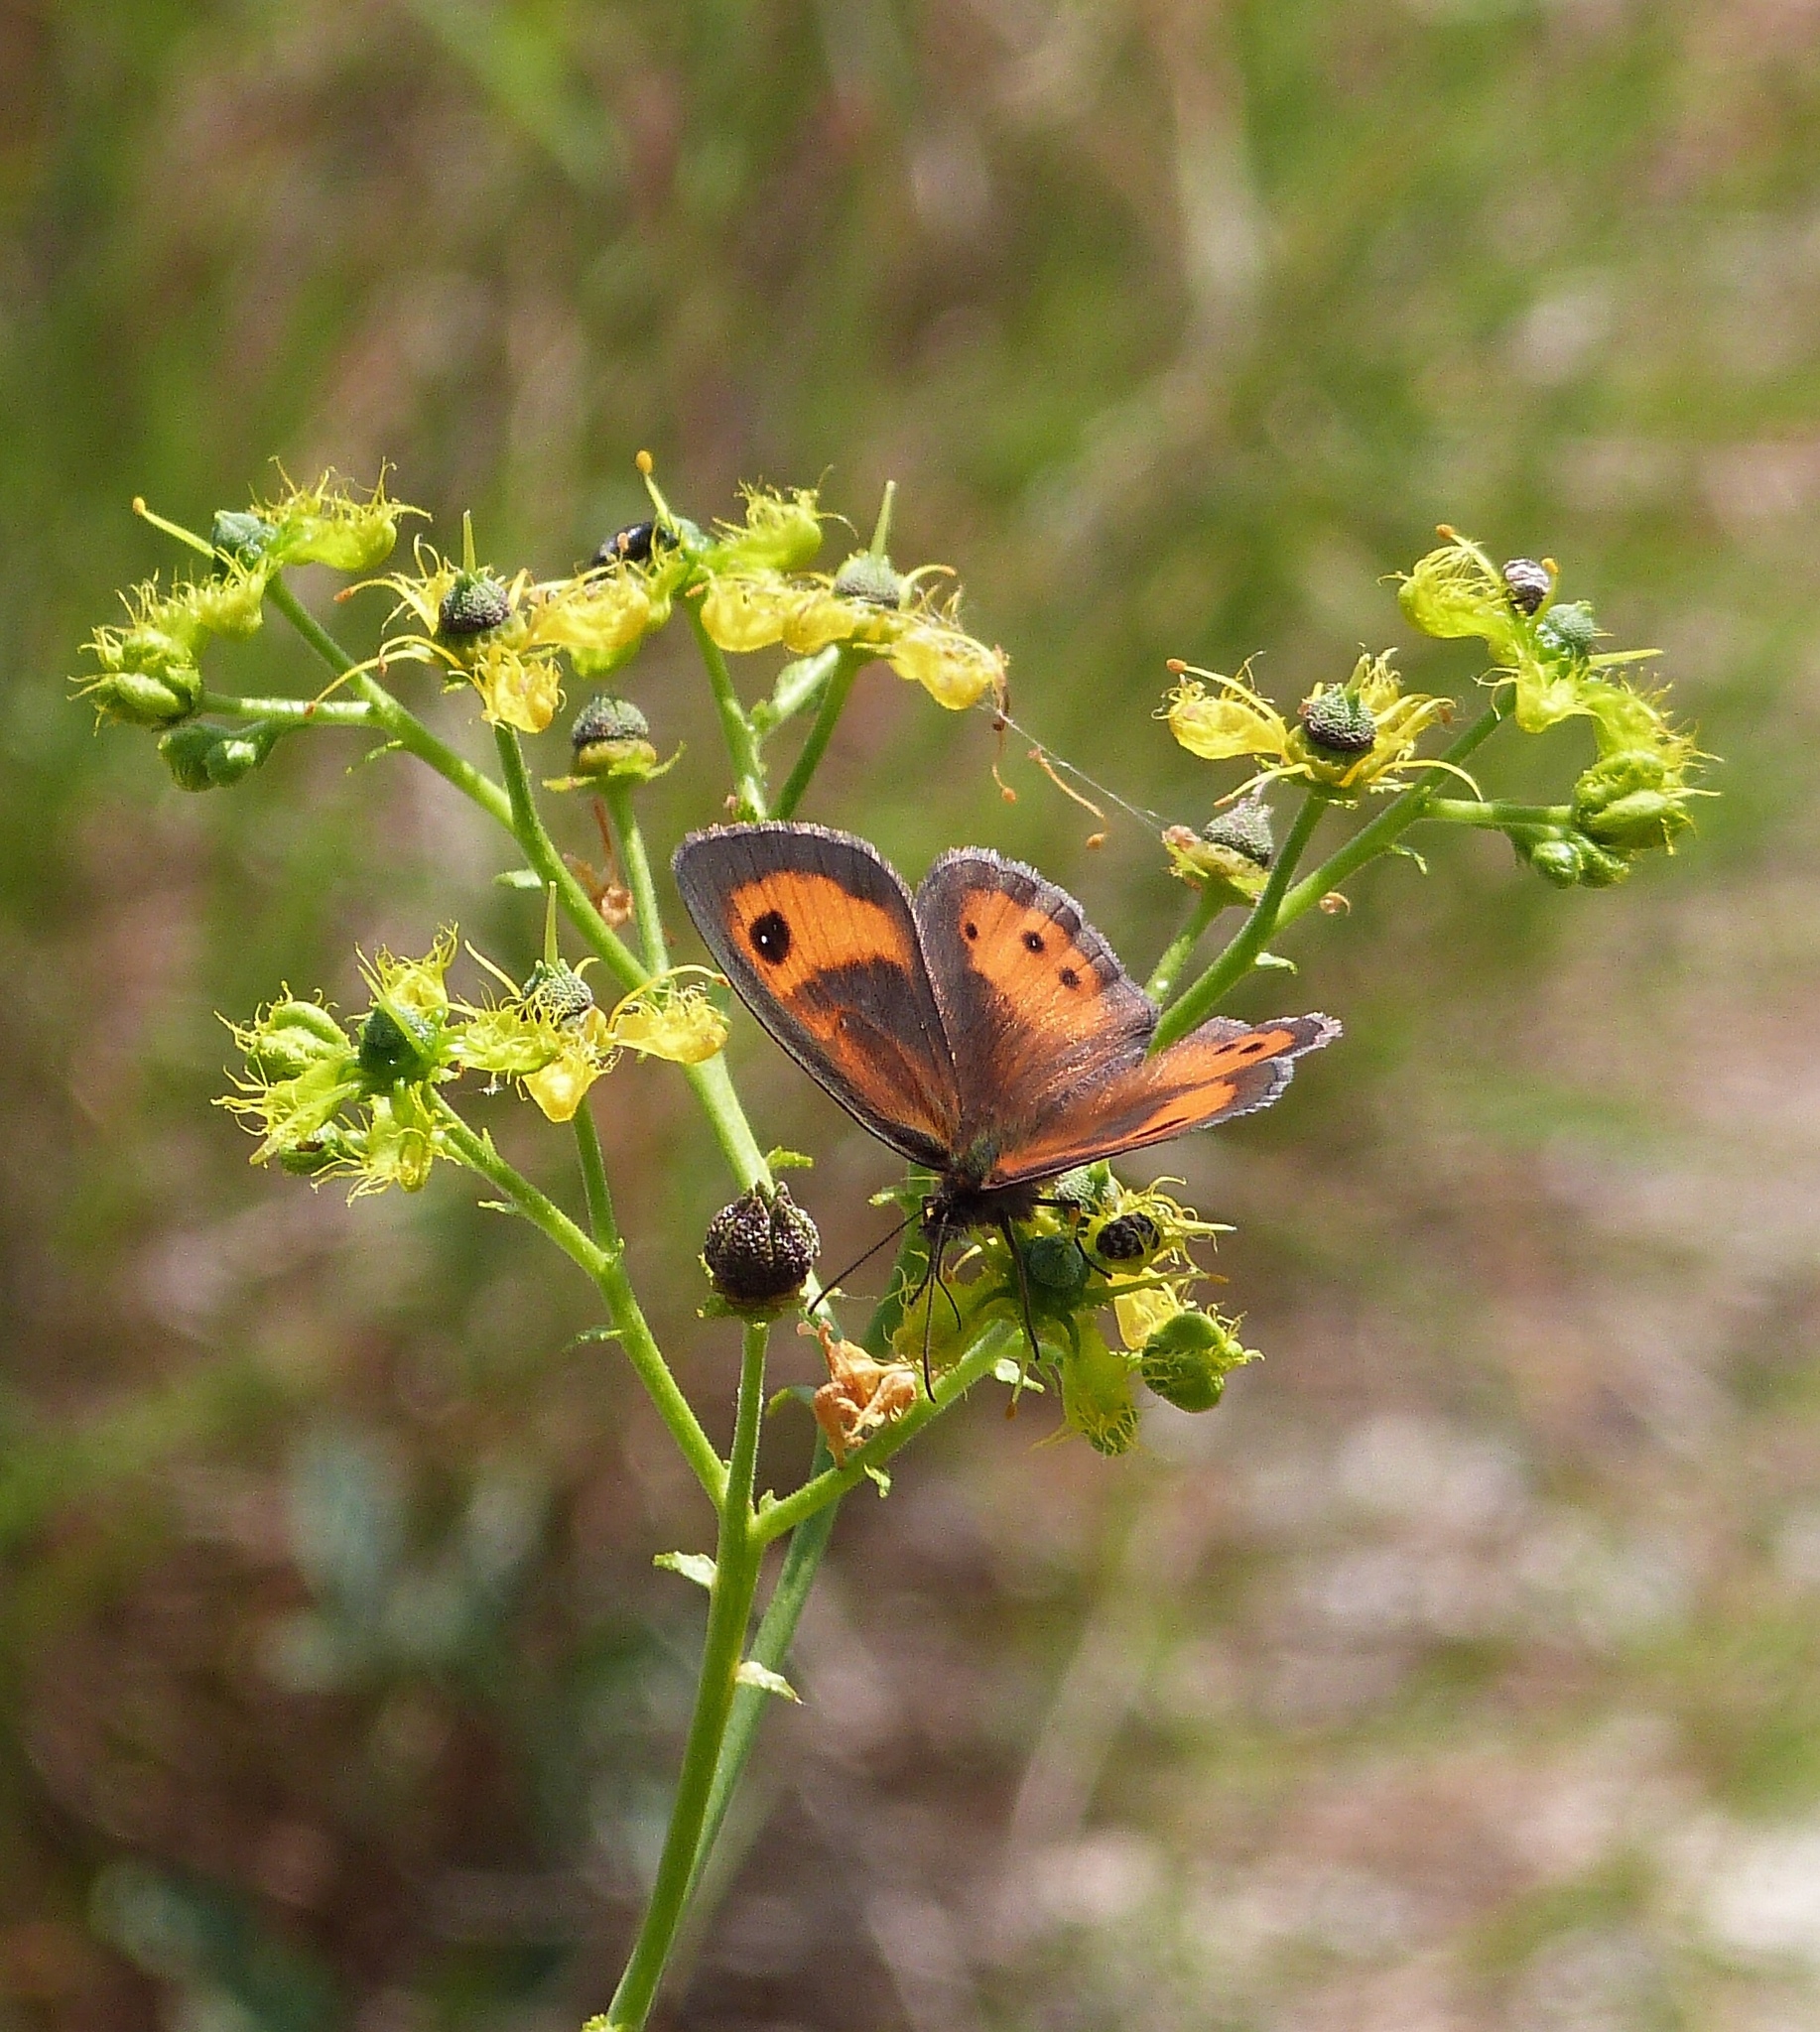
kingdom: Animalia
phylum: Arthropoda
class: Insecta
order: Lepidoptera
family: Nymphalidae
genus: Pyronia
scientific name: Pyronia bathseba
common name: Spanish gatekeeper
